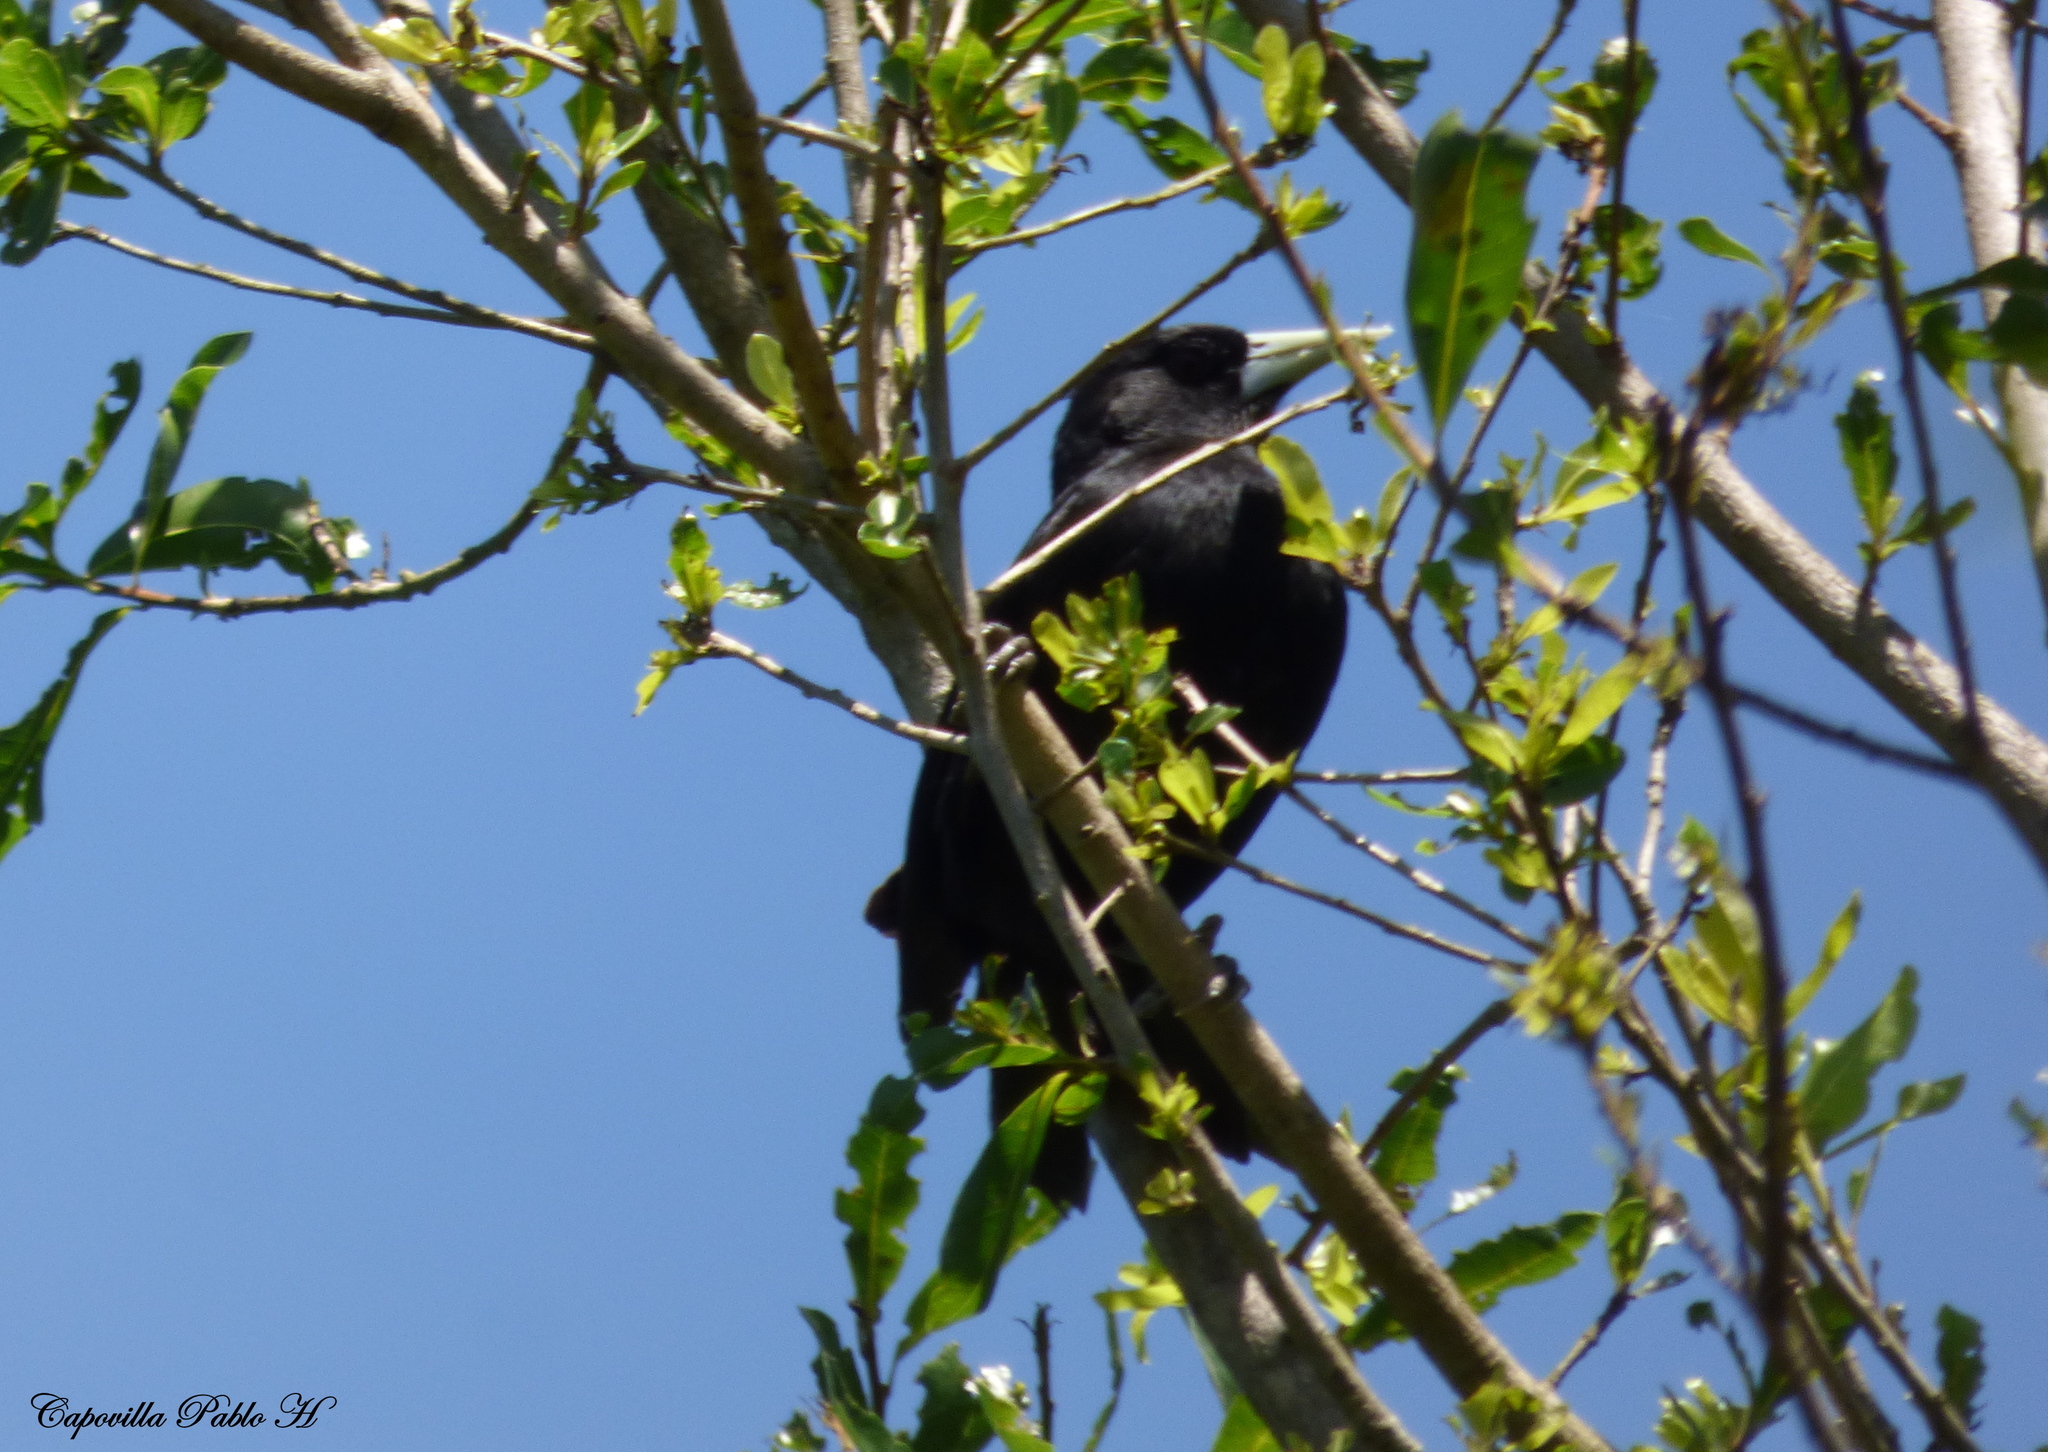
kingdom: Animalia
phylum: Chordata
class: Aves
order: Passeriformes
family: Icteridae
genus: Cacicus
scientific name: Cacicus solitarius
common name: Solitary cacique
